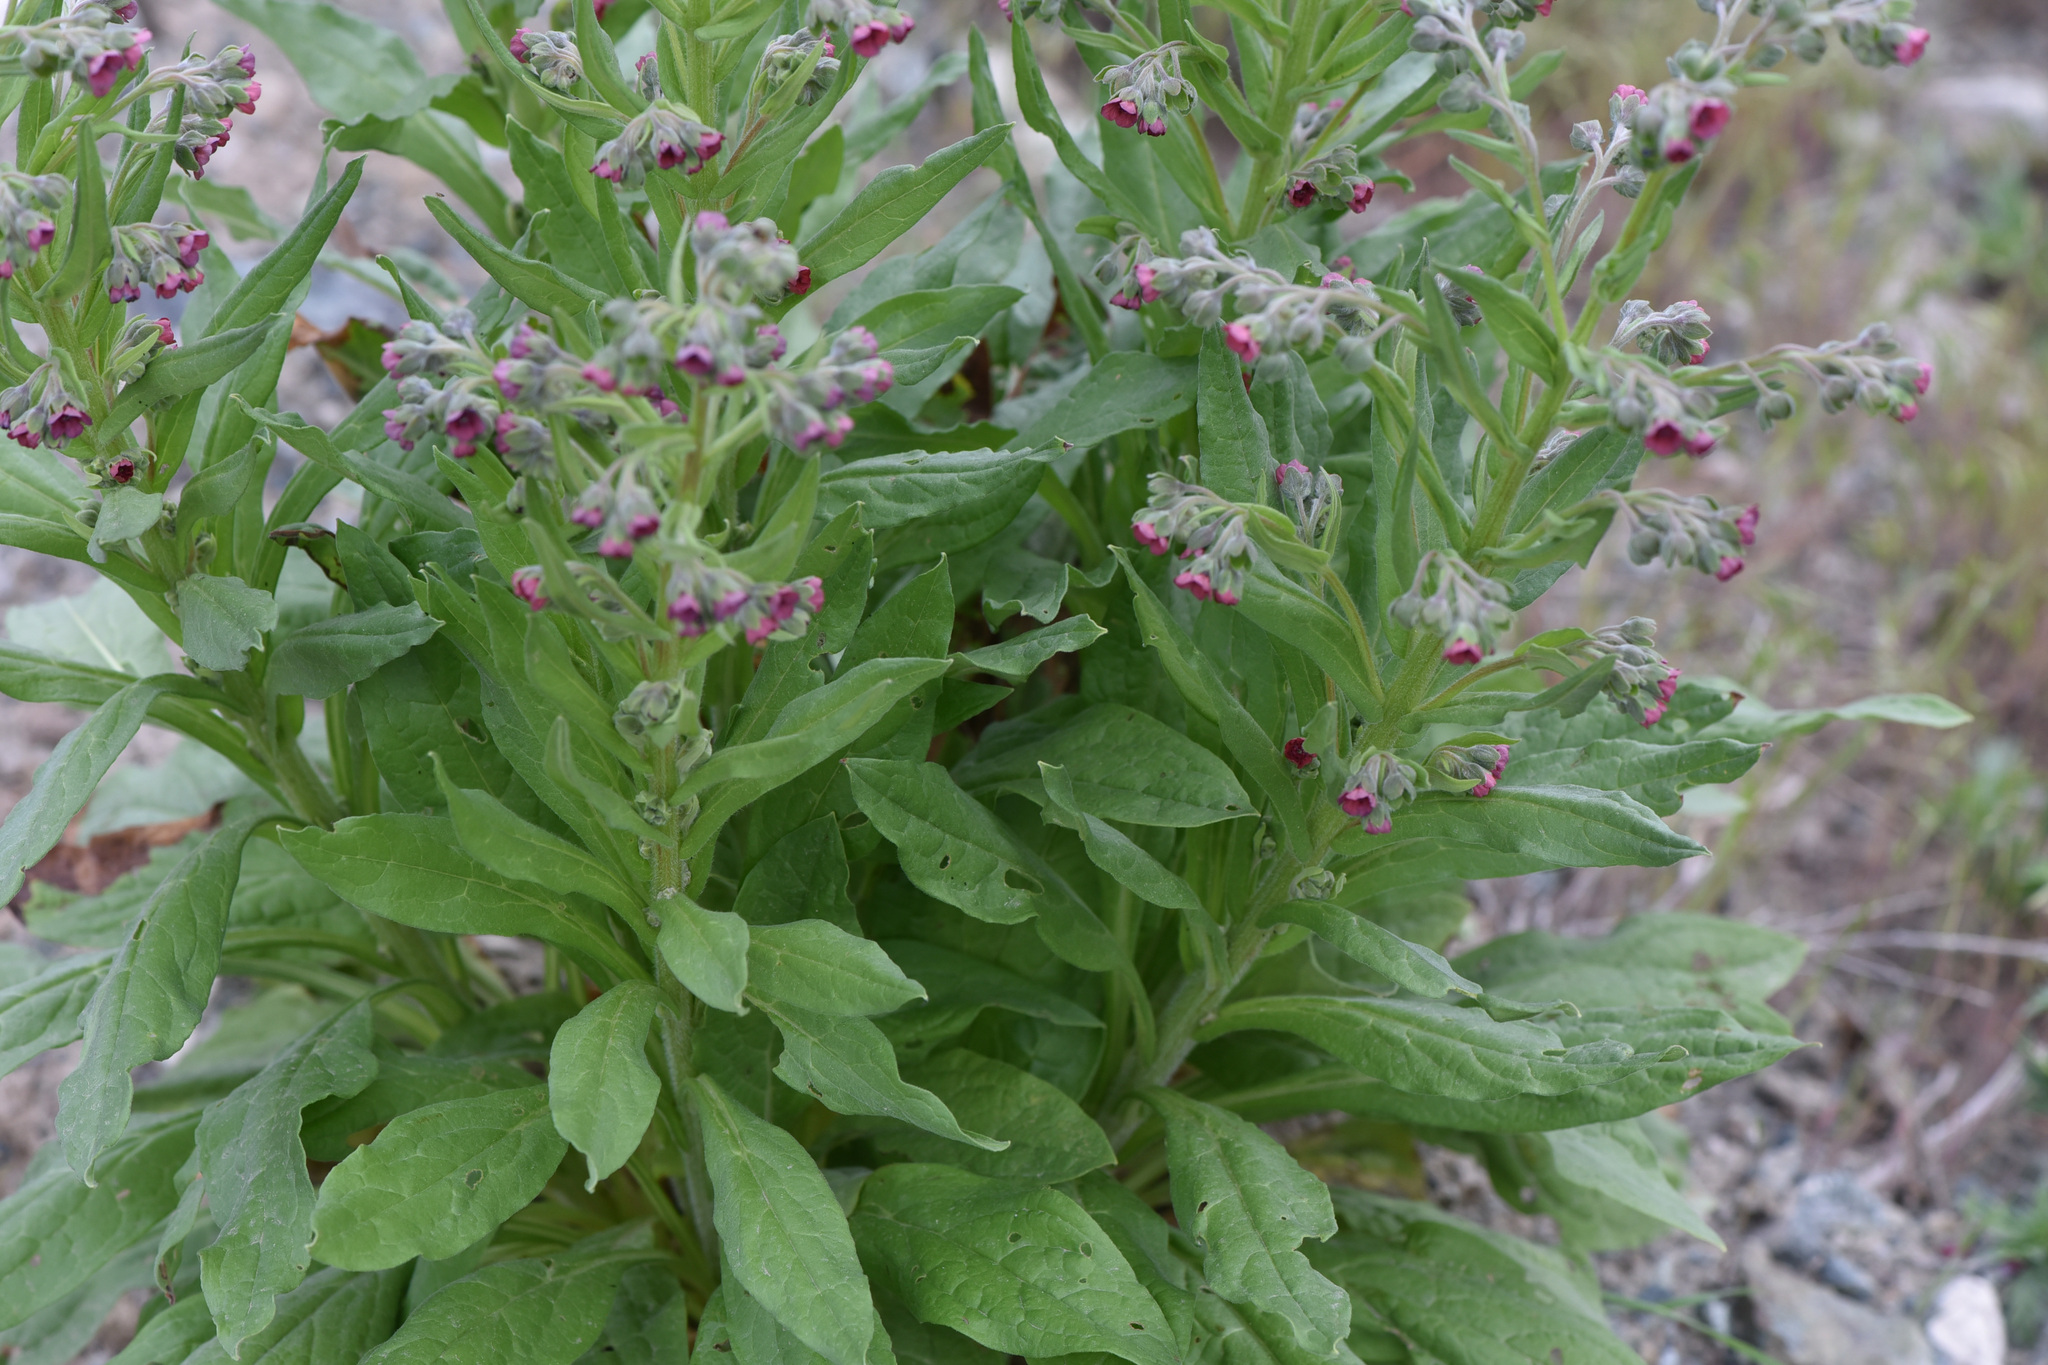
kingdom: Plantae
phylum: Tracheophyta
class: Magnoliopsida
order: Boraginales
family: Boraginaceae
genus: Cynoglossum
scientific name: Cynoglossum officinale
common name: Hound's-tongue
